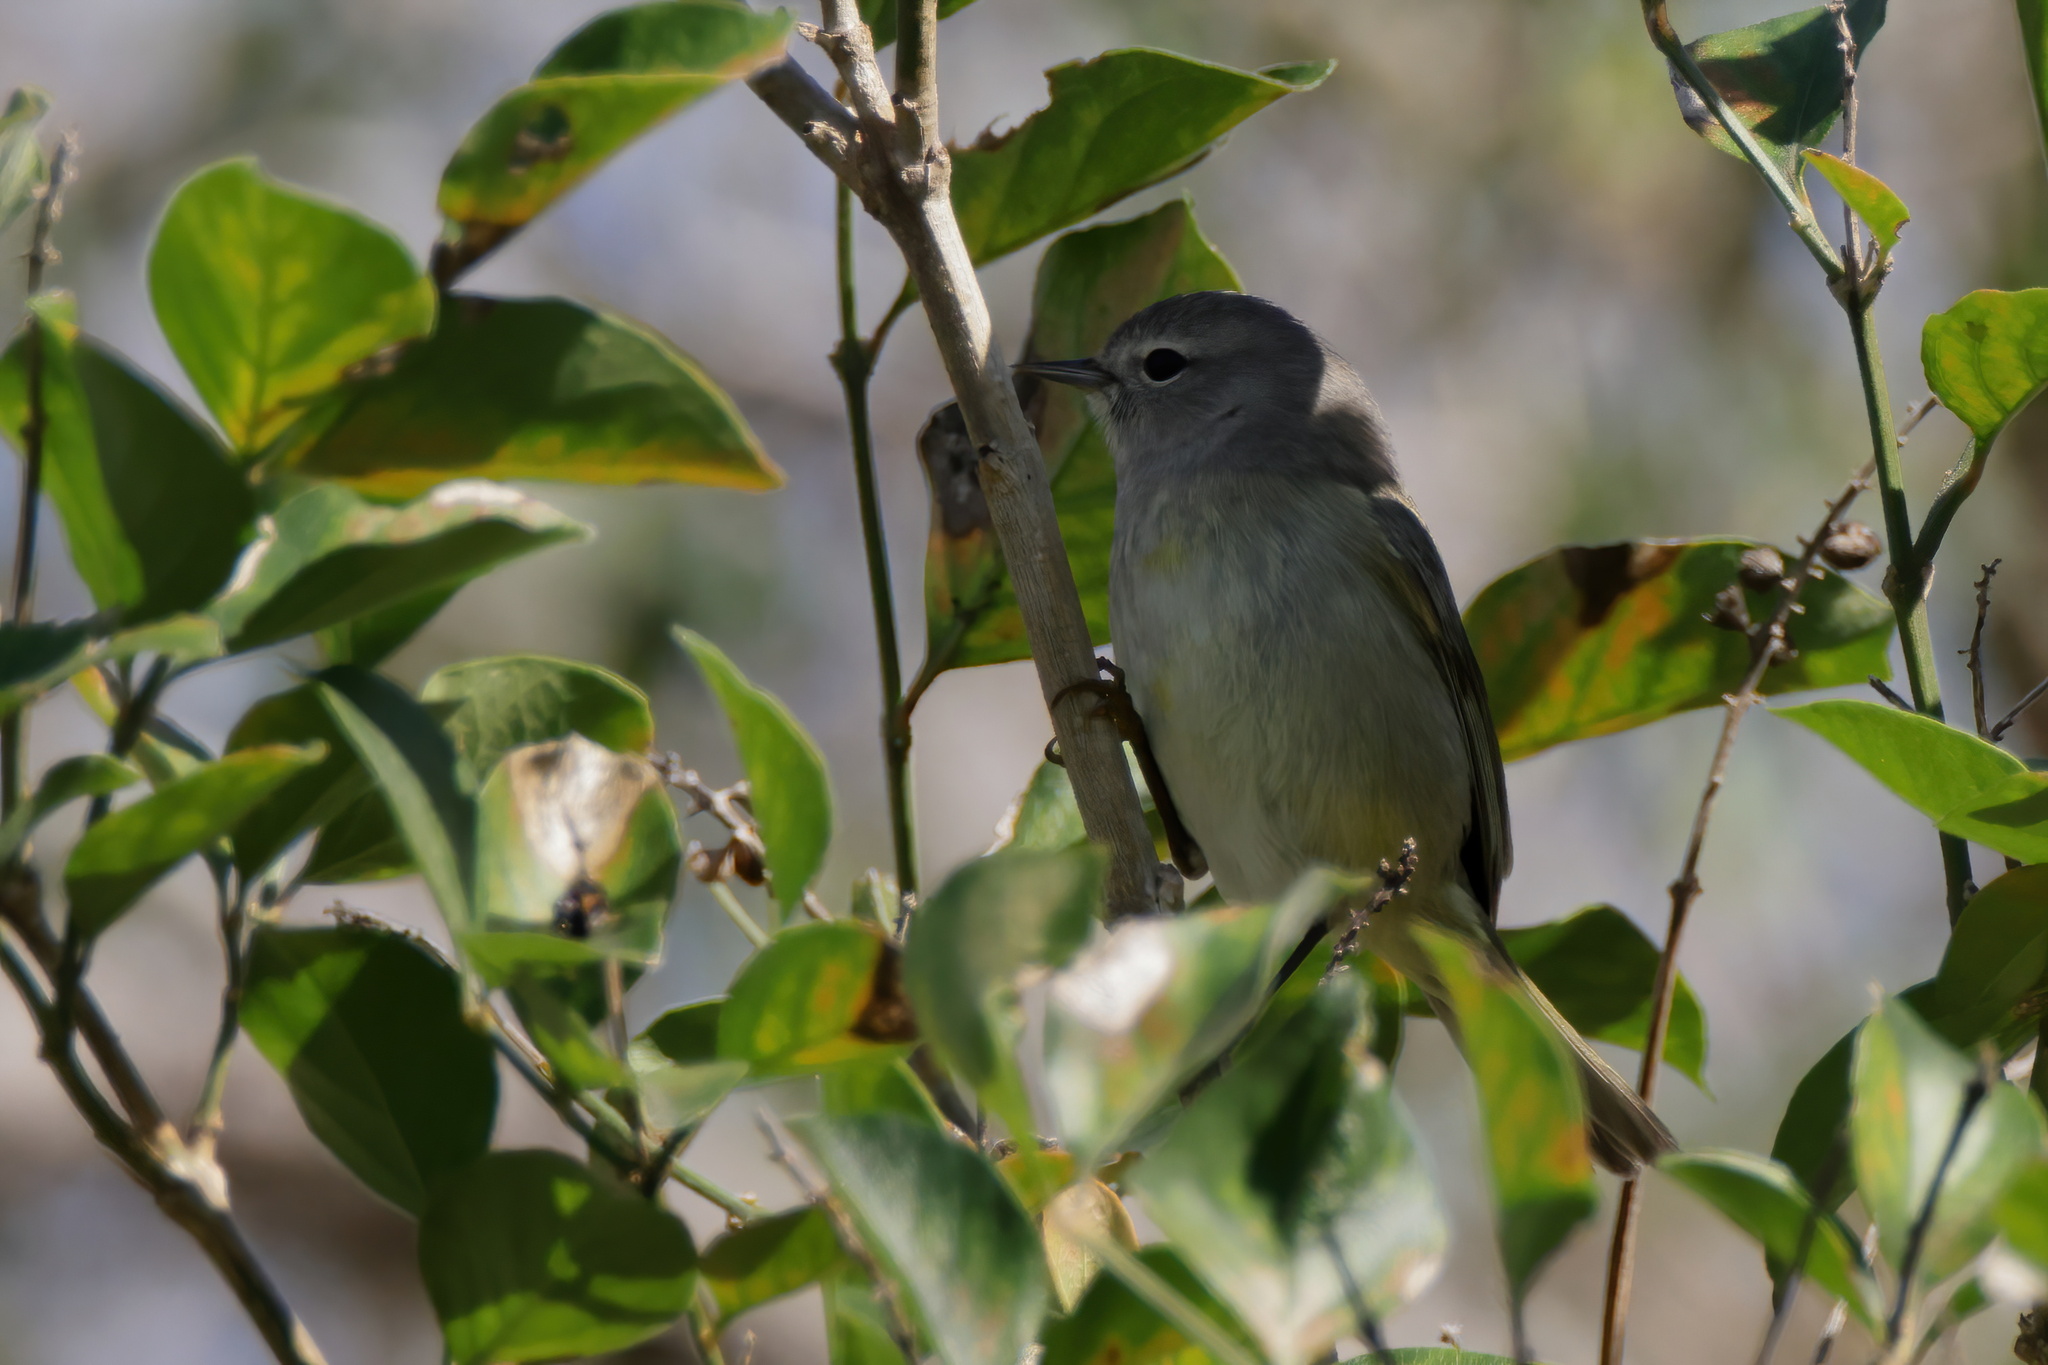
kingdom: Animalia
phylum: Chordata
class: Aves
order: Passeriformes
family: Parulidae
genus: Leiothlypis
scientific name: Leiothlypis celata
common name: Orange-crowned warbler
